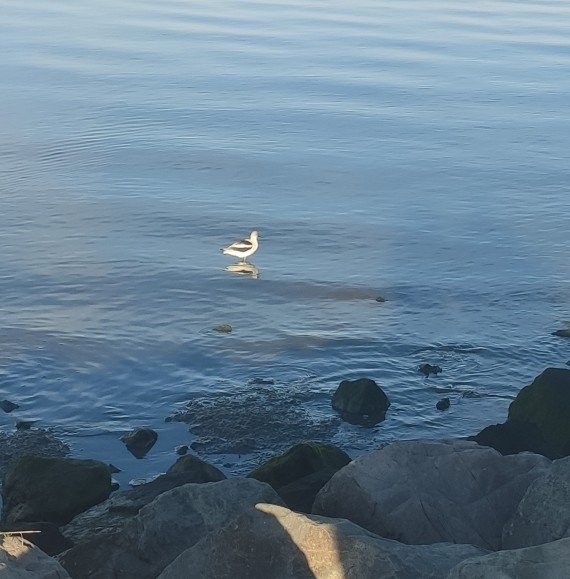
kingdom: Animalia
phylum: Chordata
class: Aves
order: Charadriiformes
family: Recurvirostridae
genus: Recurvirostra
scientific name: Recurvirostra americana
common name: American avocet
